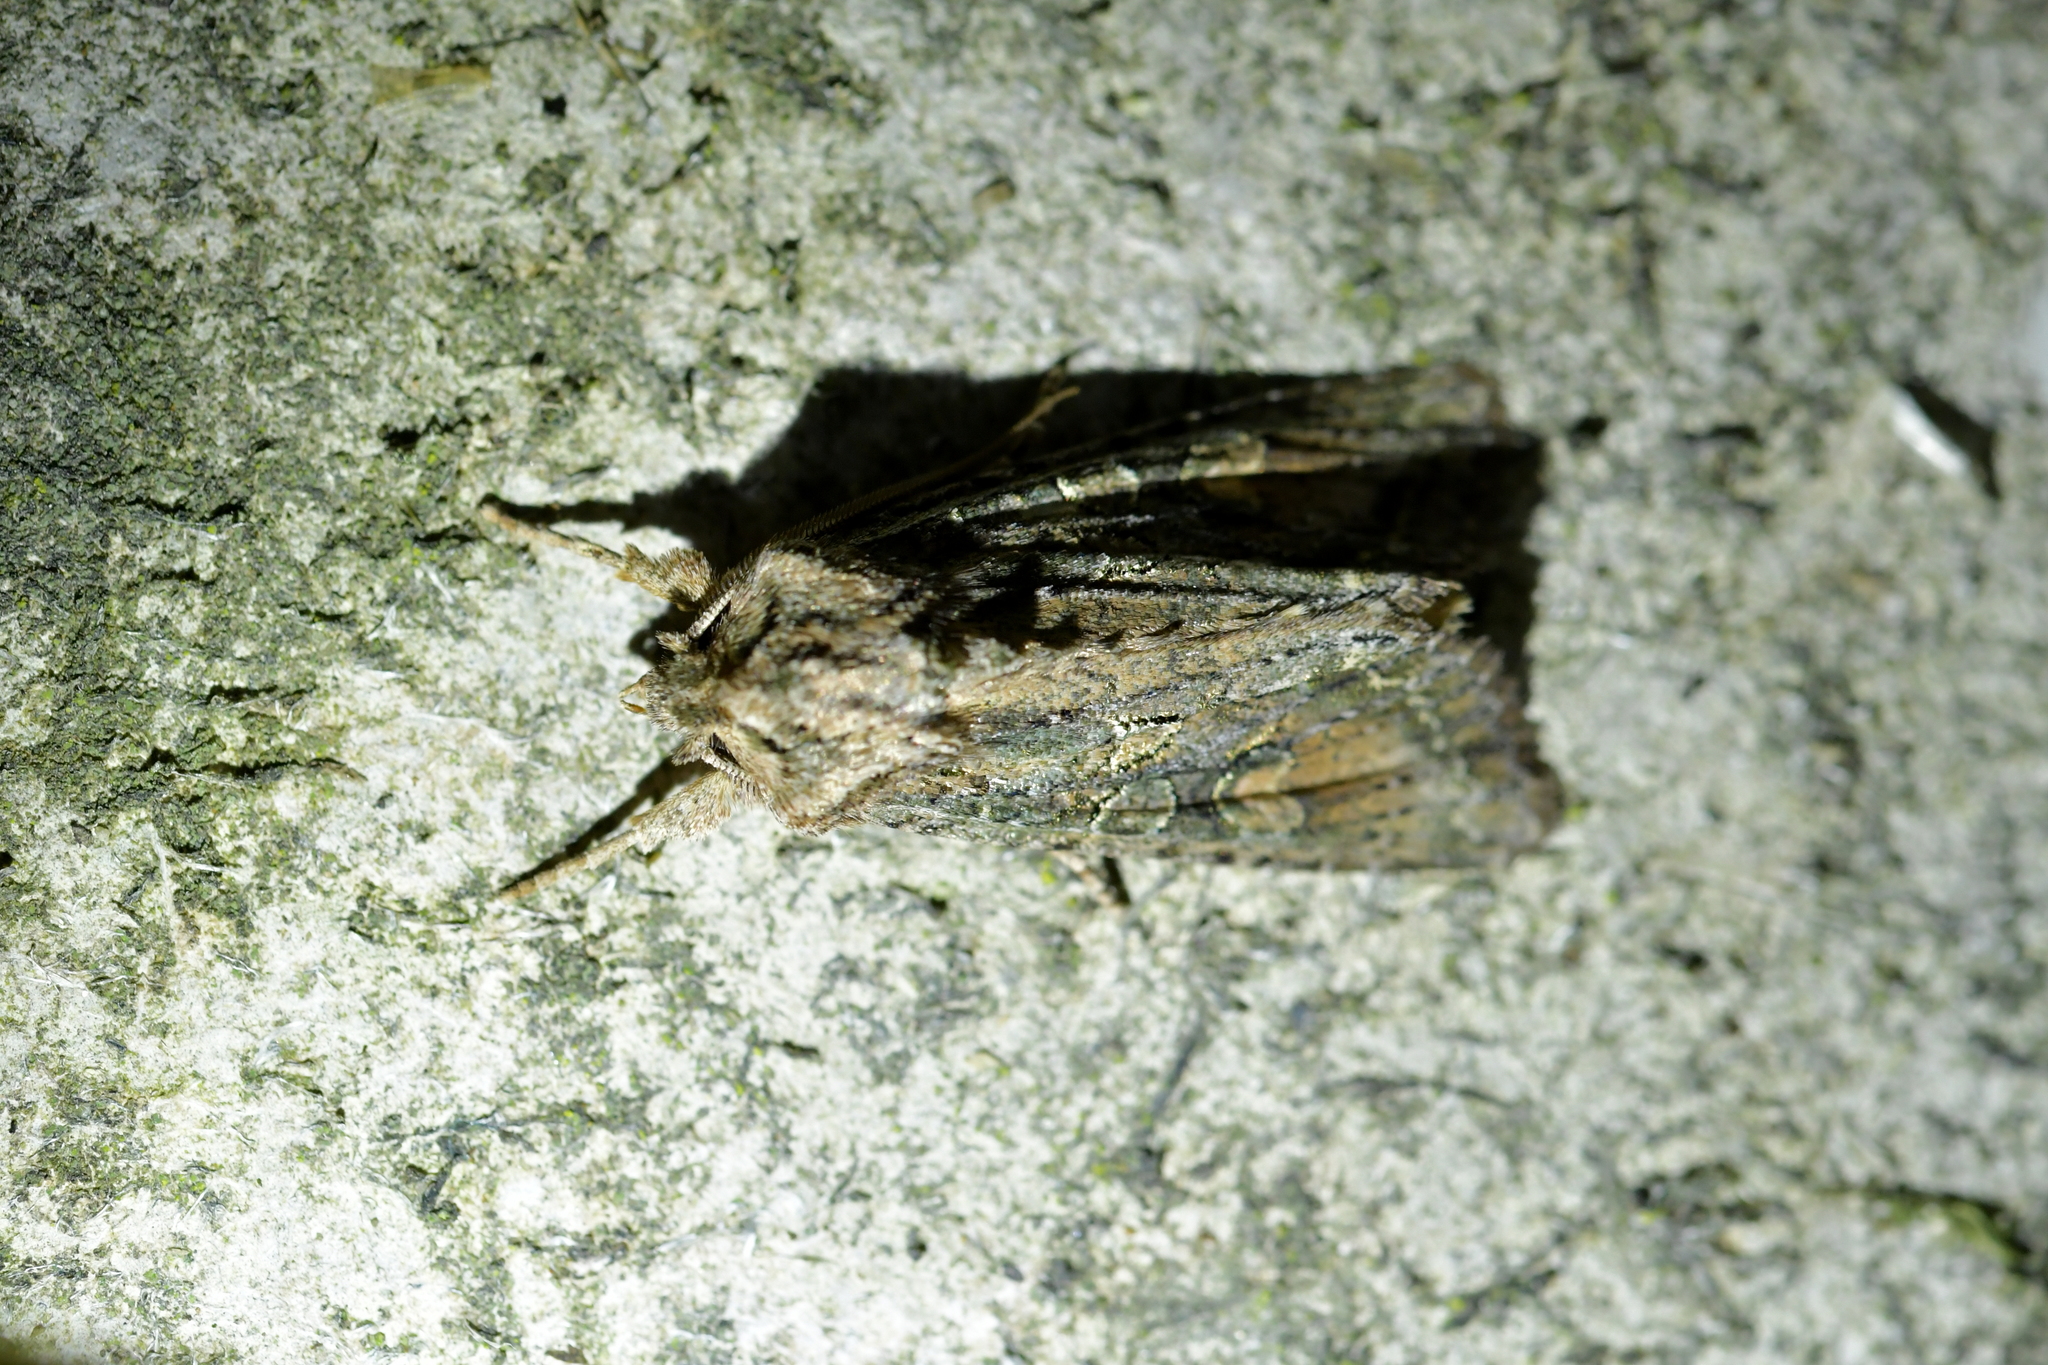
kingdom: Animalia
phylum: Arthropoda
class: Insecta
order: Lepidoptera
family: Noctuidae
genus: Ichneutica
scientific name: Ichneutica mutans
